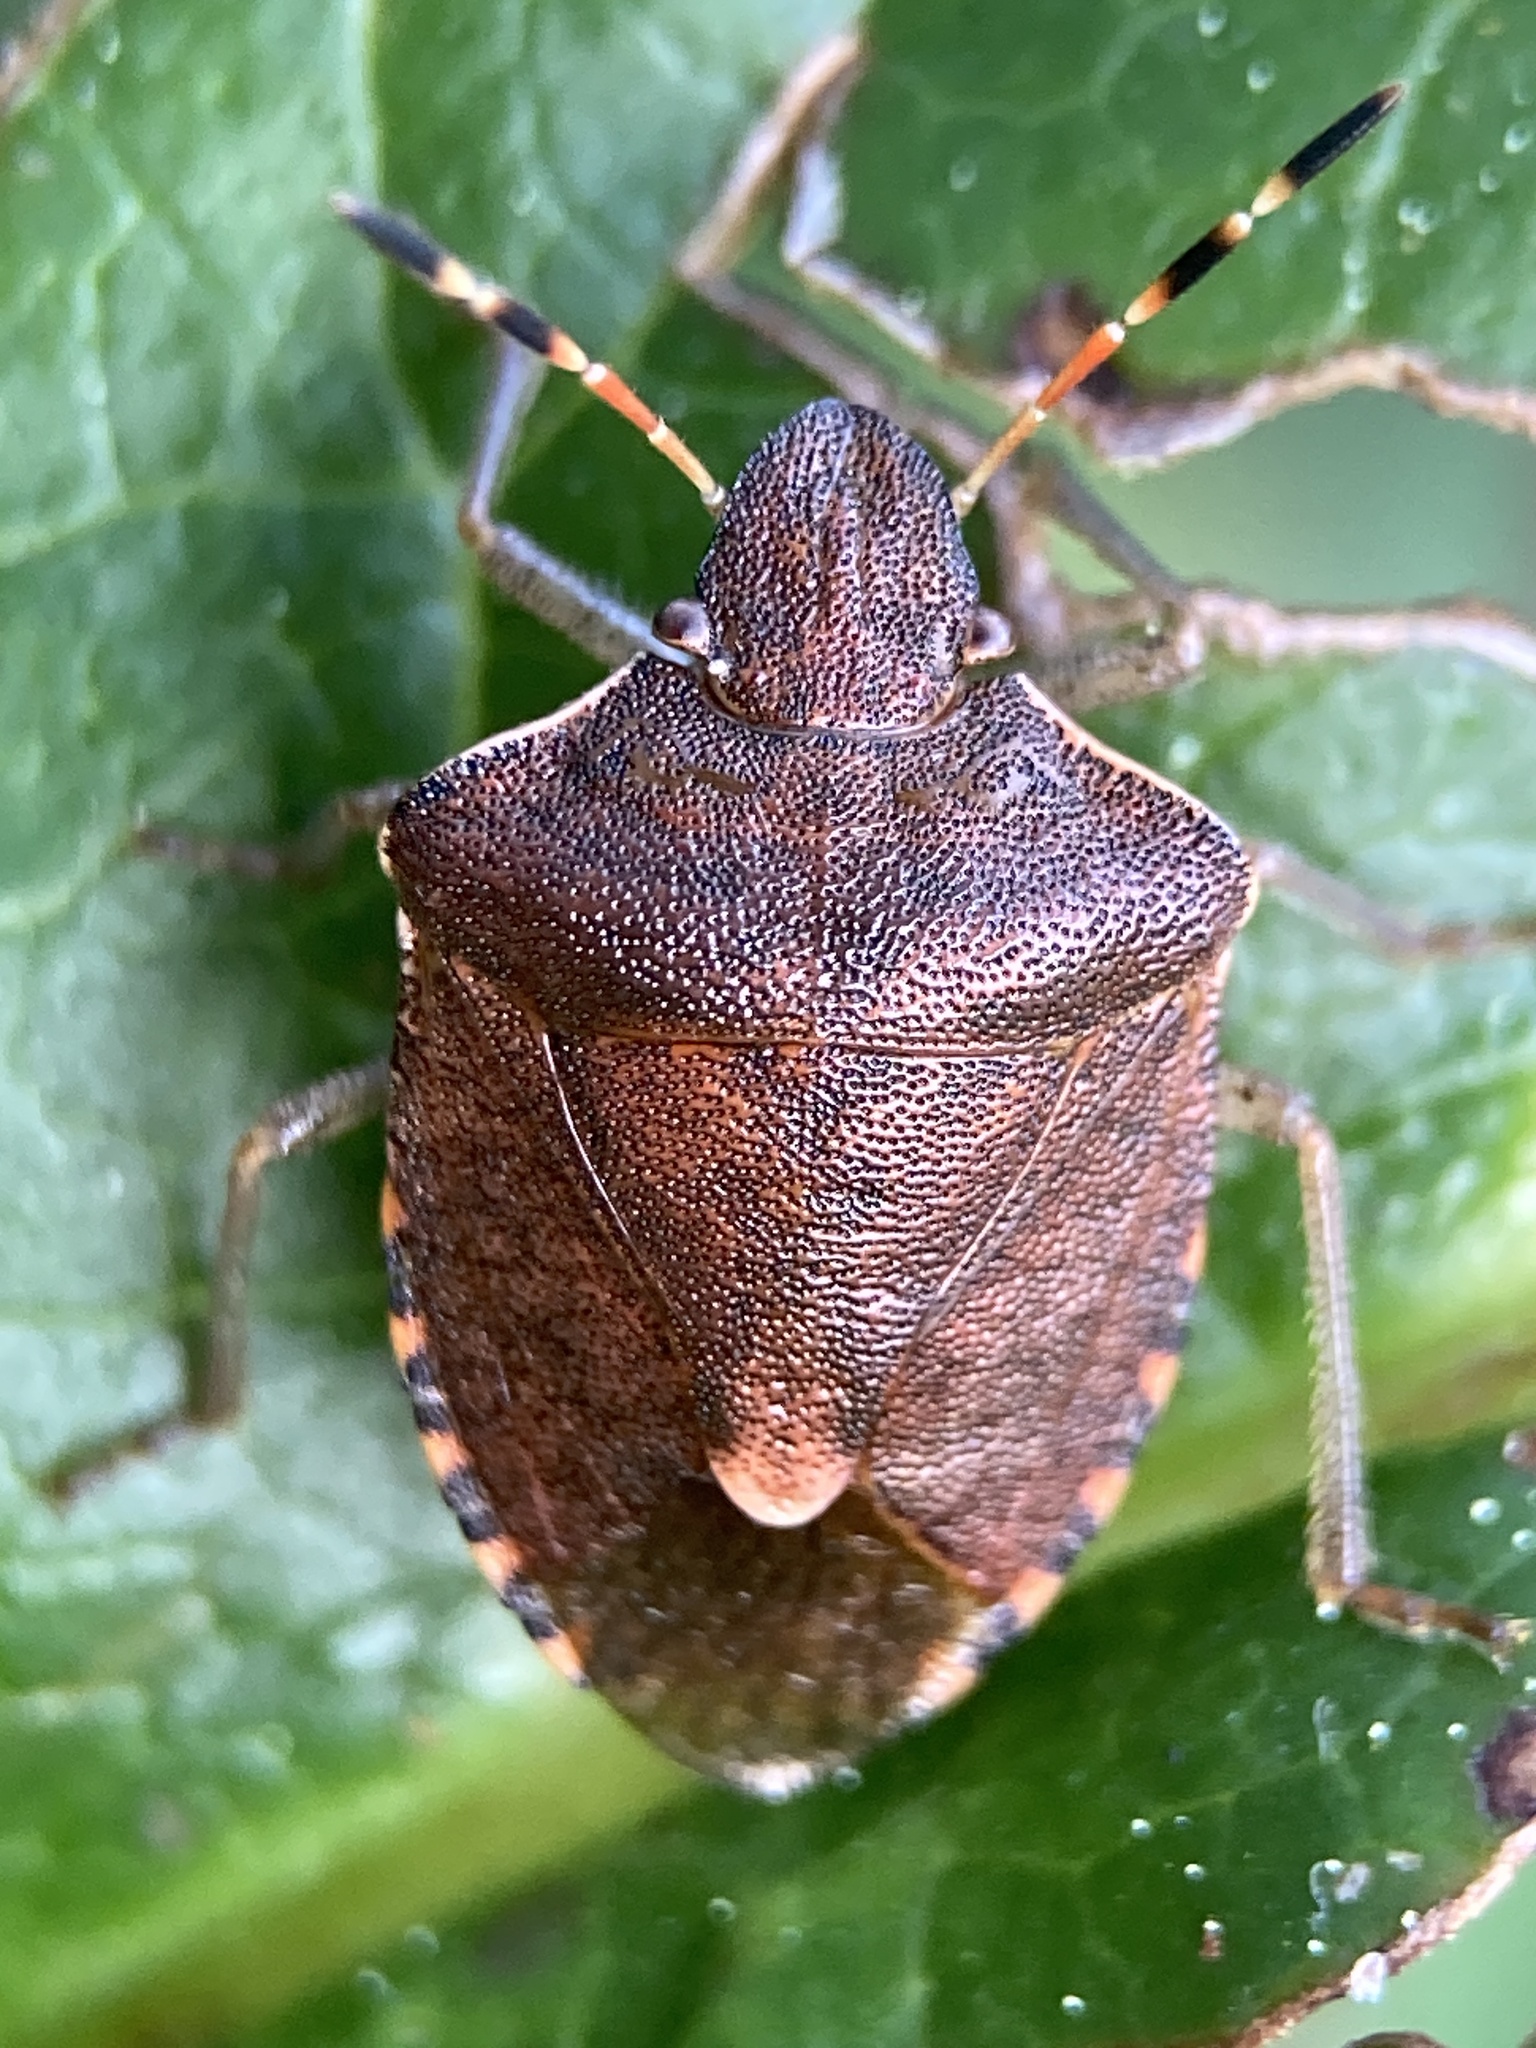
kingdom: Animalia
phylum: Arthropoda
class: Insecta
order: Hemiptera
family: Pentatomidae
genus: Holcostethus
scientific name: Holcostethus strictus
